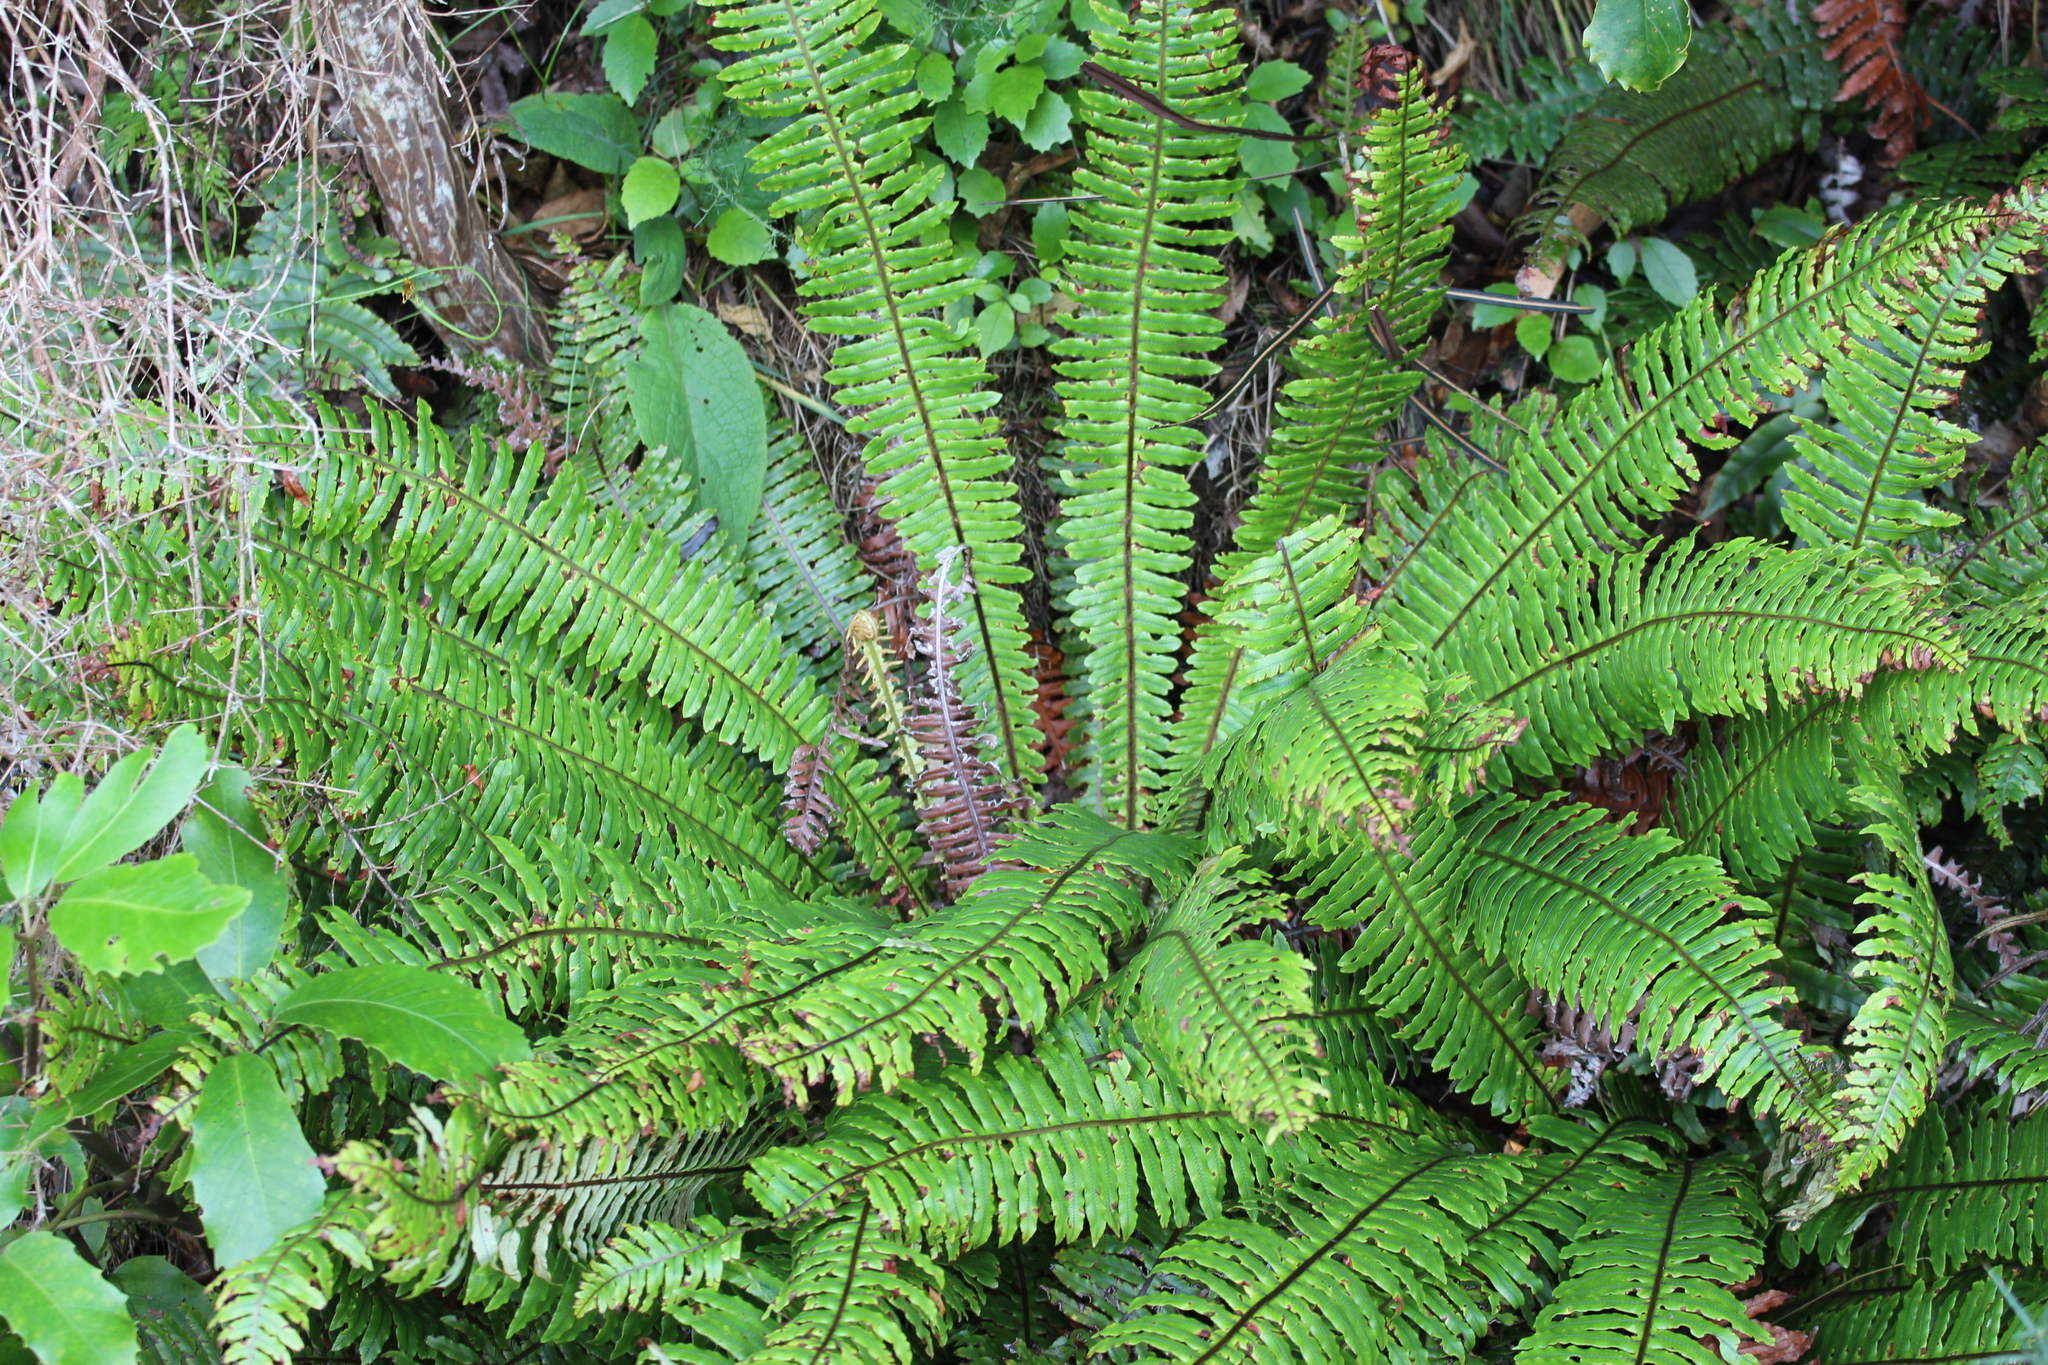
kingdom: Plantae
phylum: Tracheophyta
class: Polypodiopsida
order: Polypodiales
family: Blechnaceae
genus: Lomaria
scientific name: Lomaria discolor
